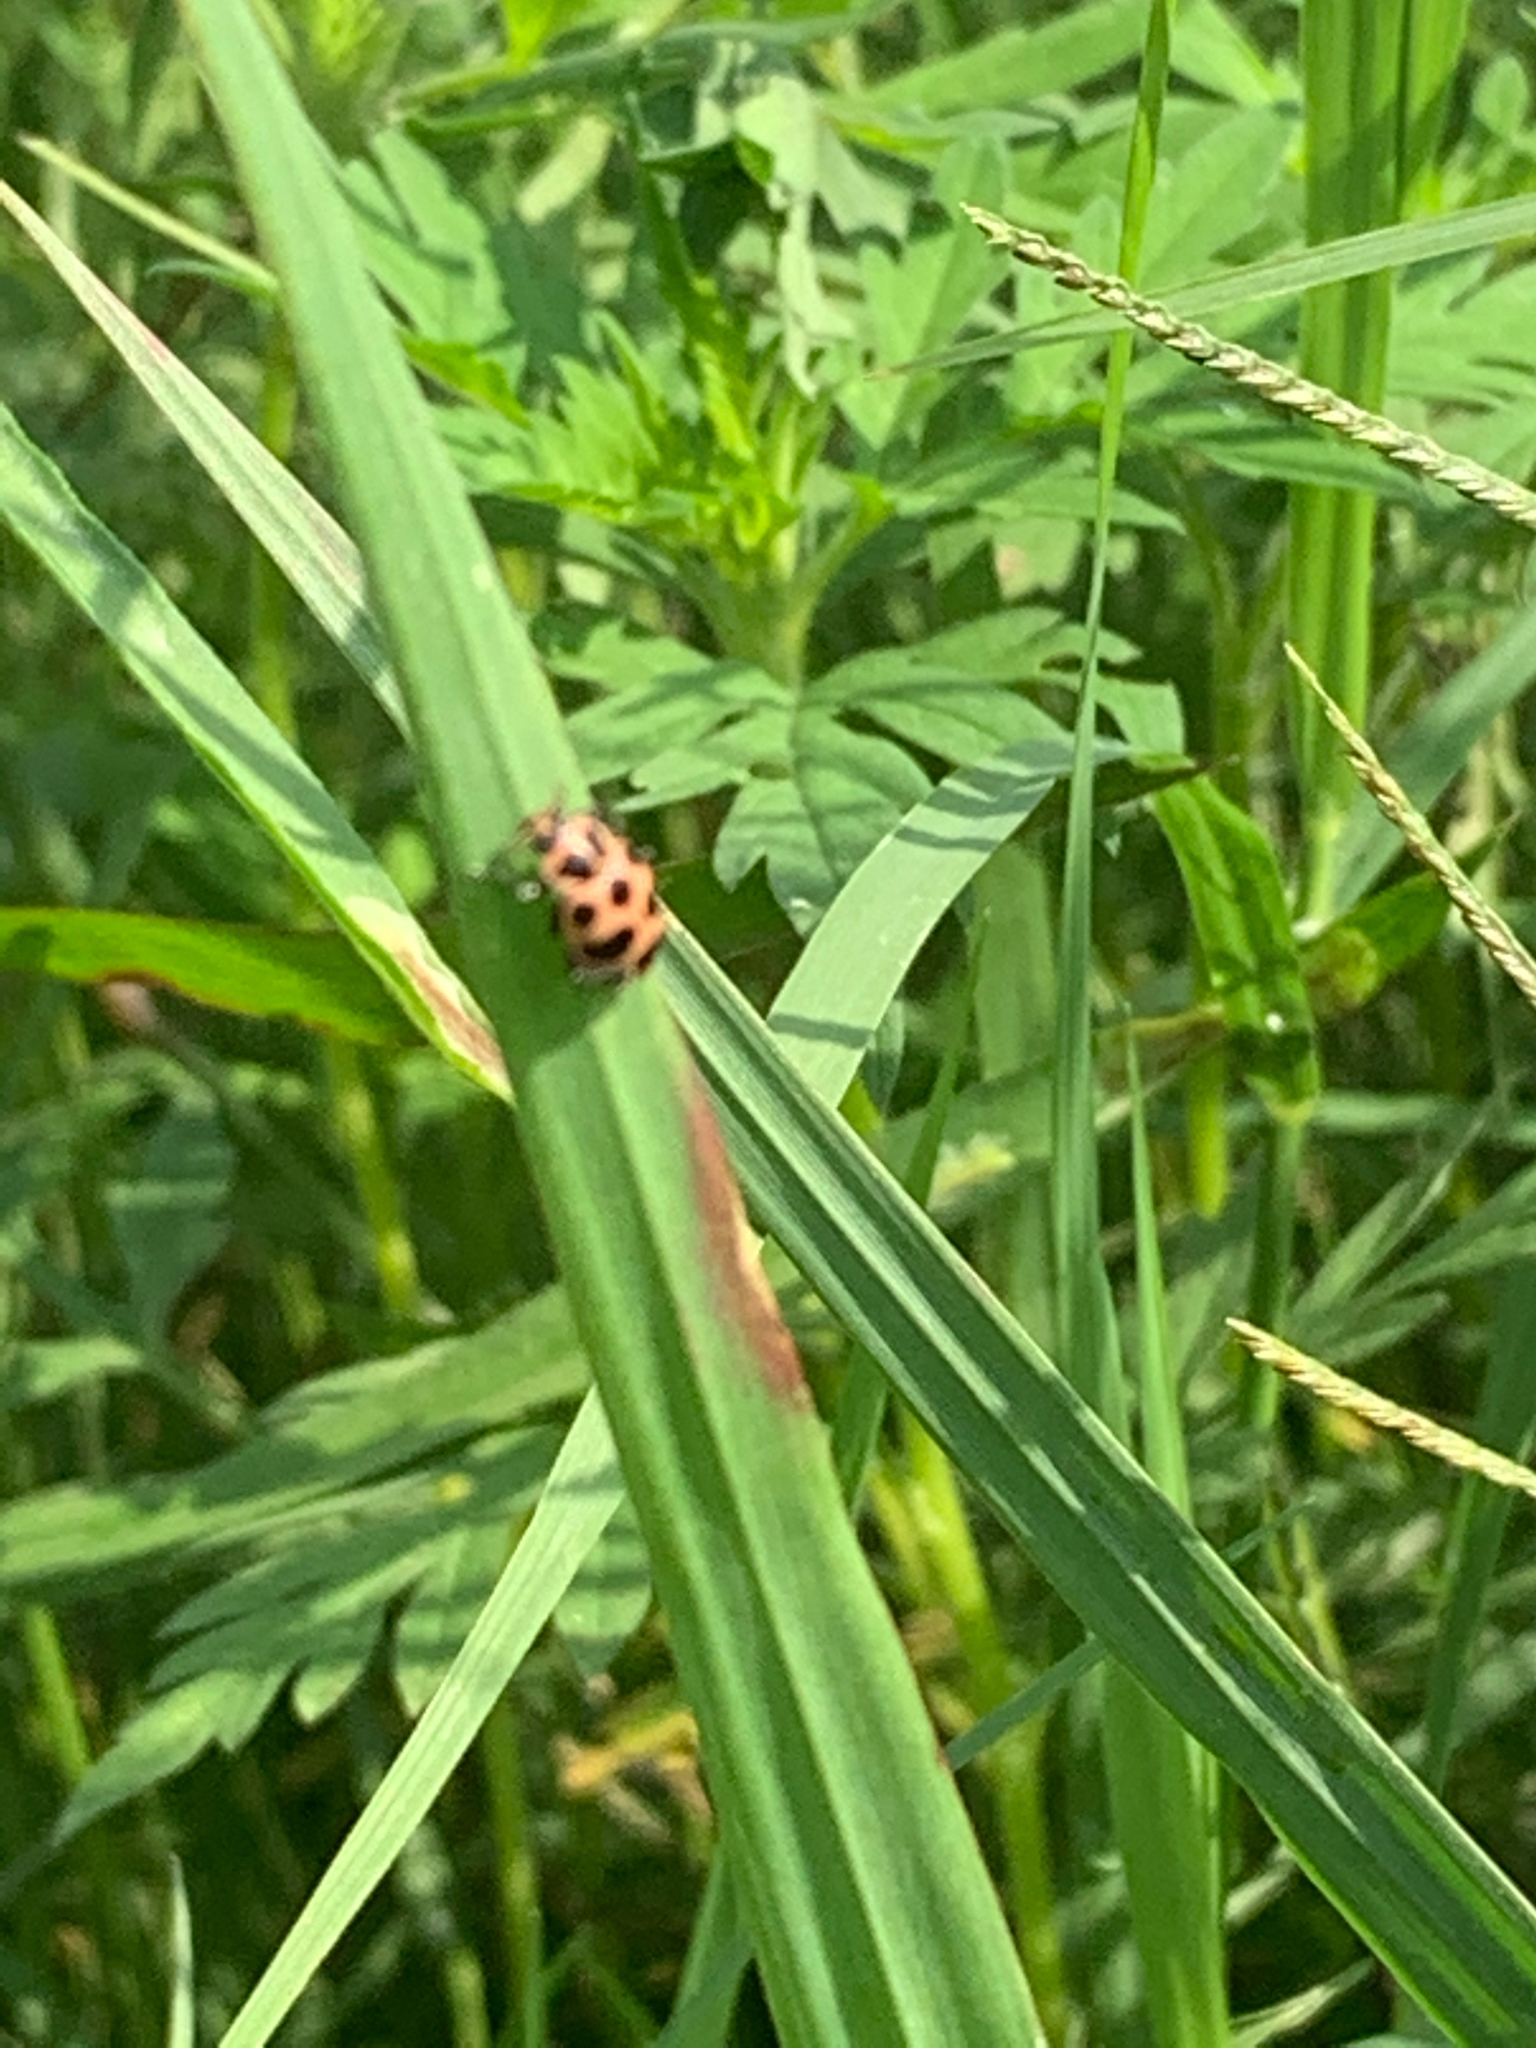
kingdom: Animalia
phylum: Arthropoda
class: Insecta
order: Coleoptera
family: Coccinellidae
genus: Coleomegilla
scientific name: Coleomegilla maculata
